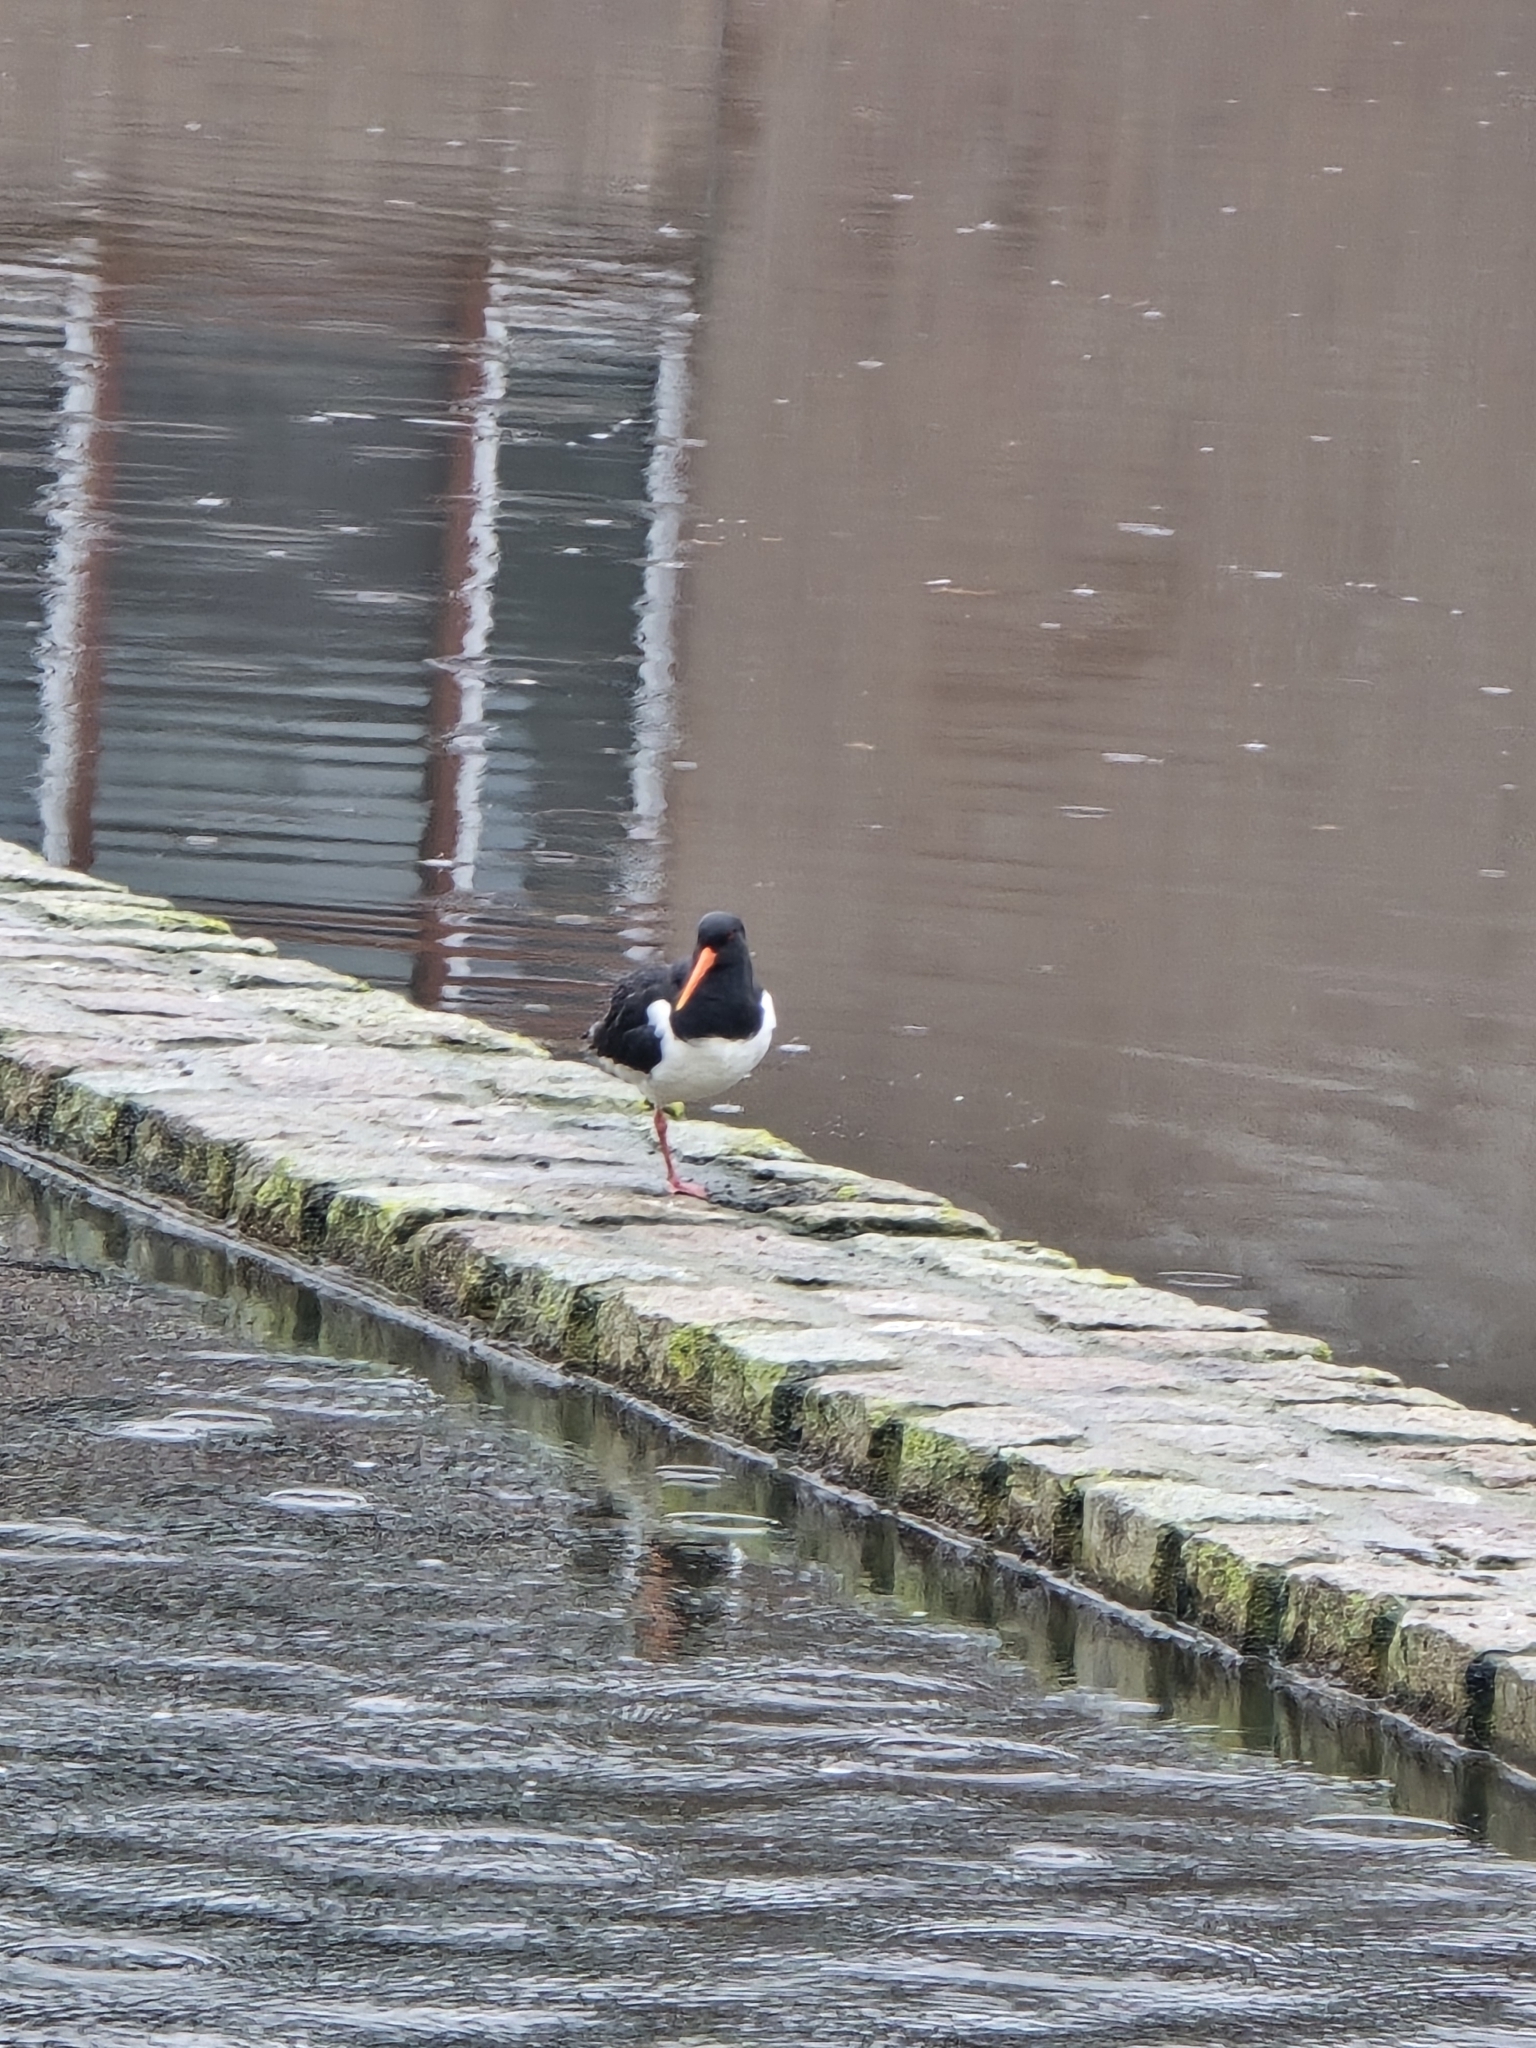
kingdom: Animalia
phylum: Chordata
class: Aves
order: Charadriiformes
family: Haematopodidae
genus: Haematopus
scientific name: Haematopus ostralegus
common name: Eurasian oystercatcher
